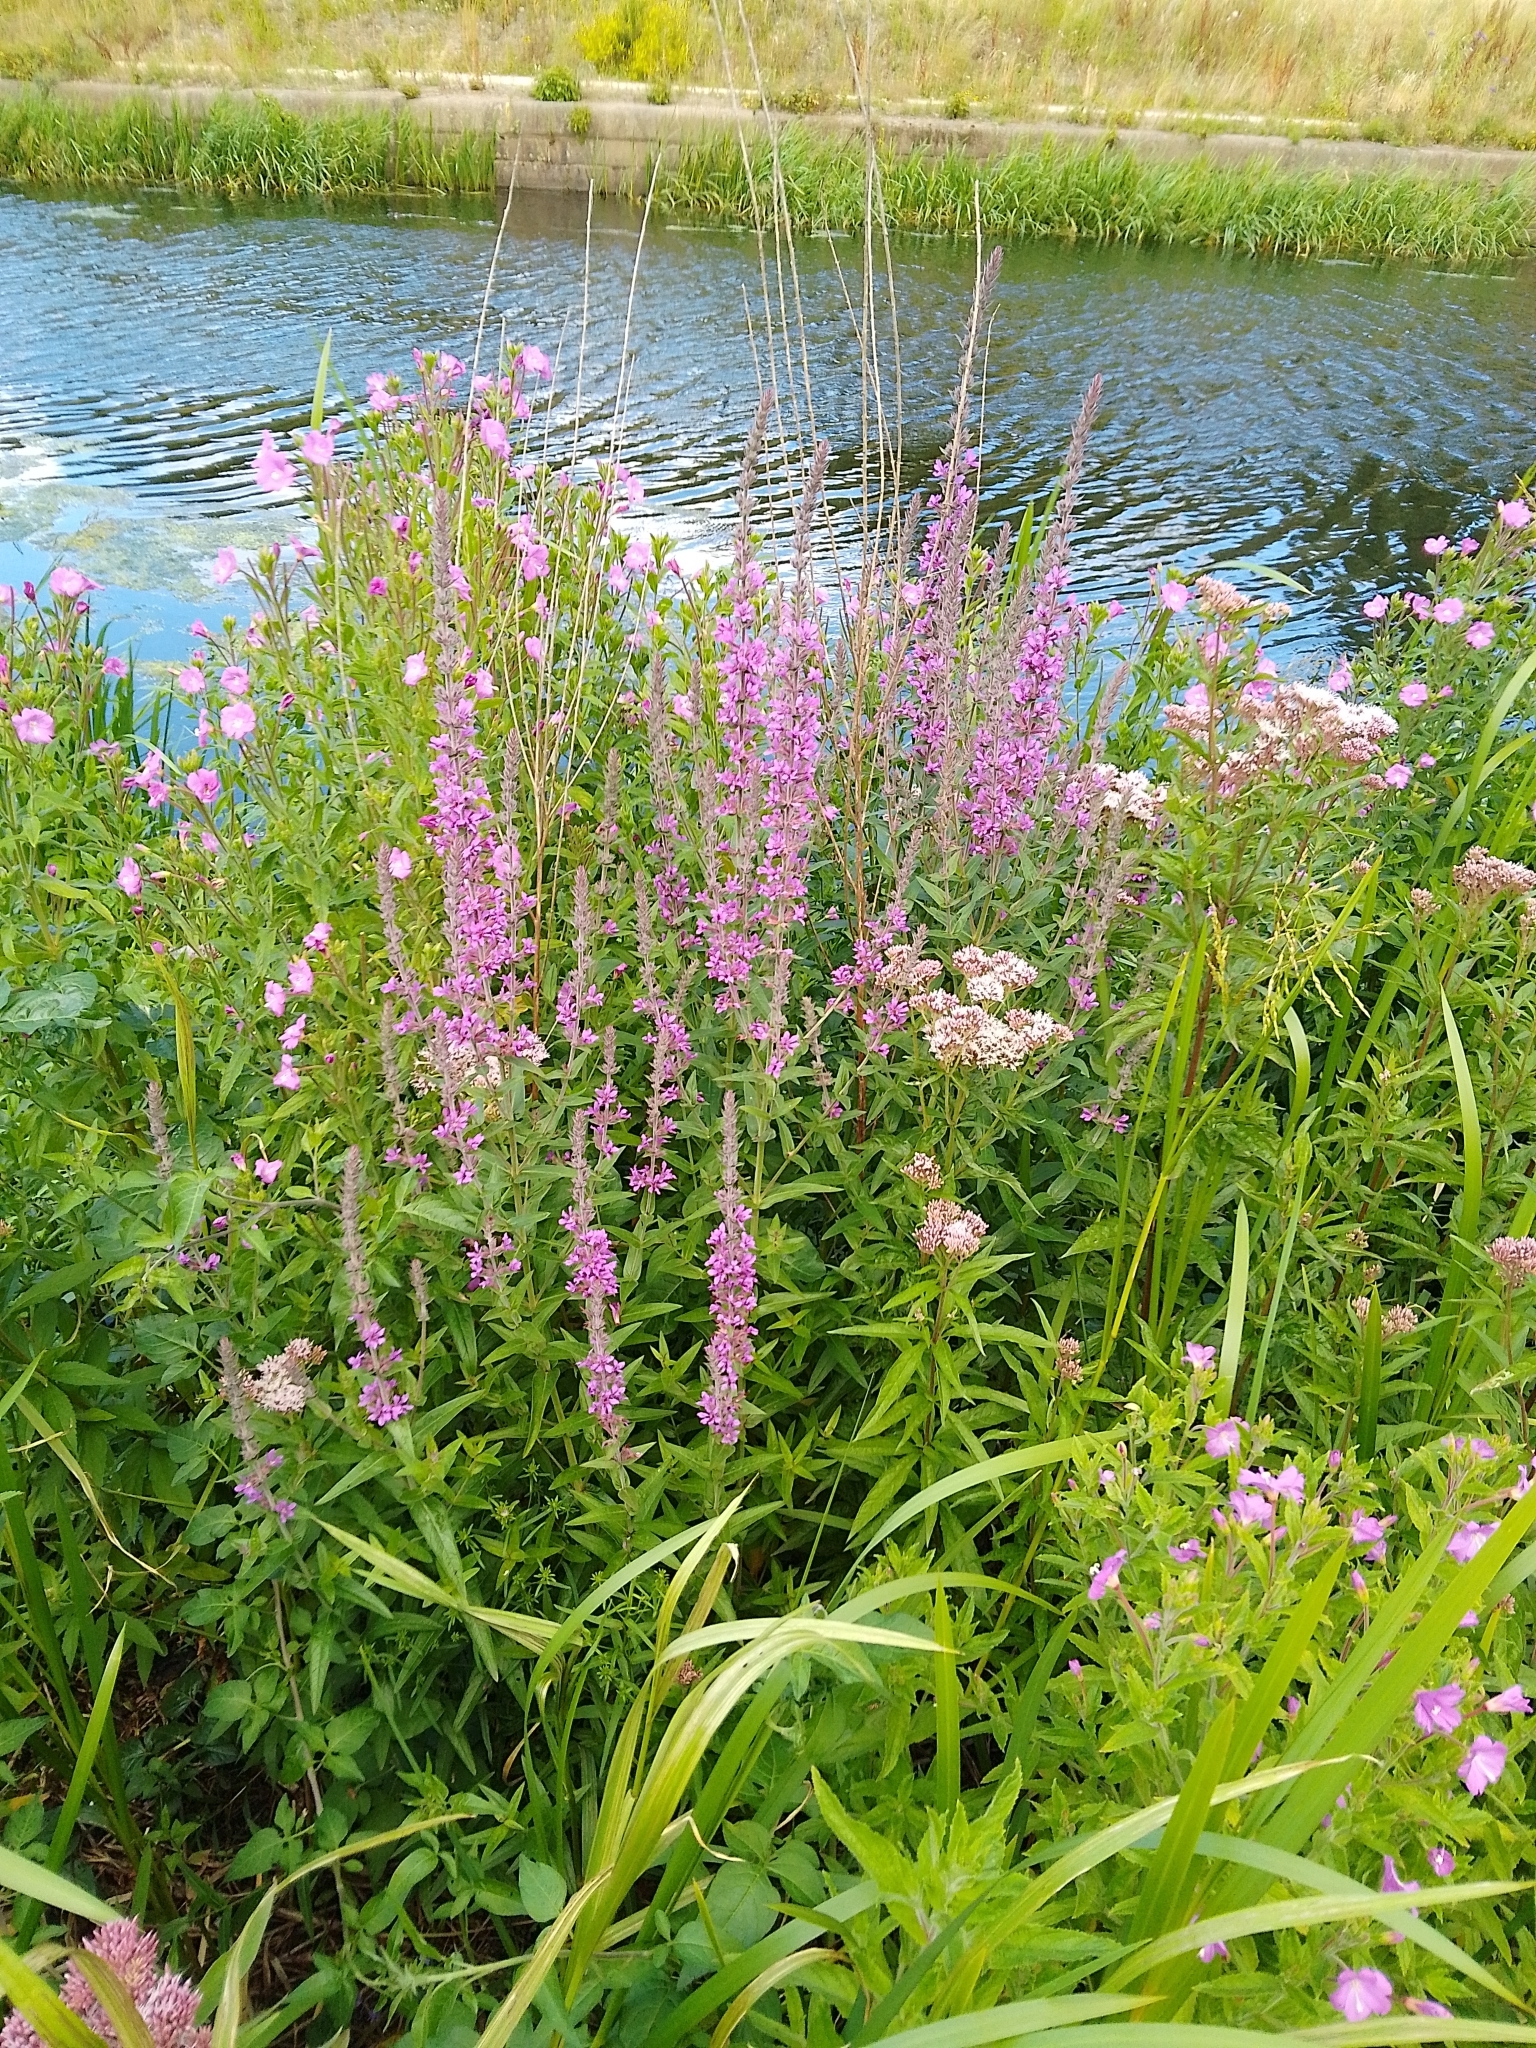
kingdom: Plantae
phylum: Tracheophyta
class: Magnoliopsida
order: Myrtales
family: Lythraceae
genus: Lythrum
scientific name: Lythrum salicaria
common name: Purple loosestrife
